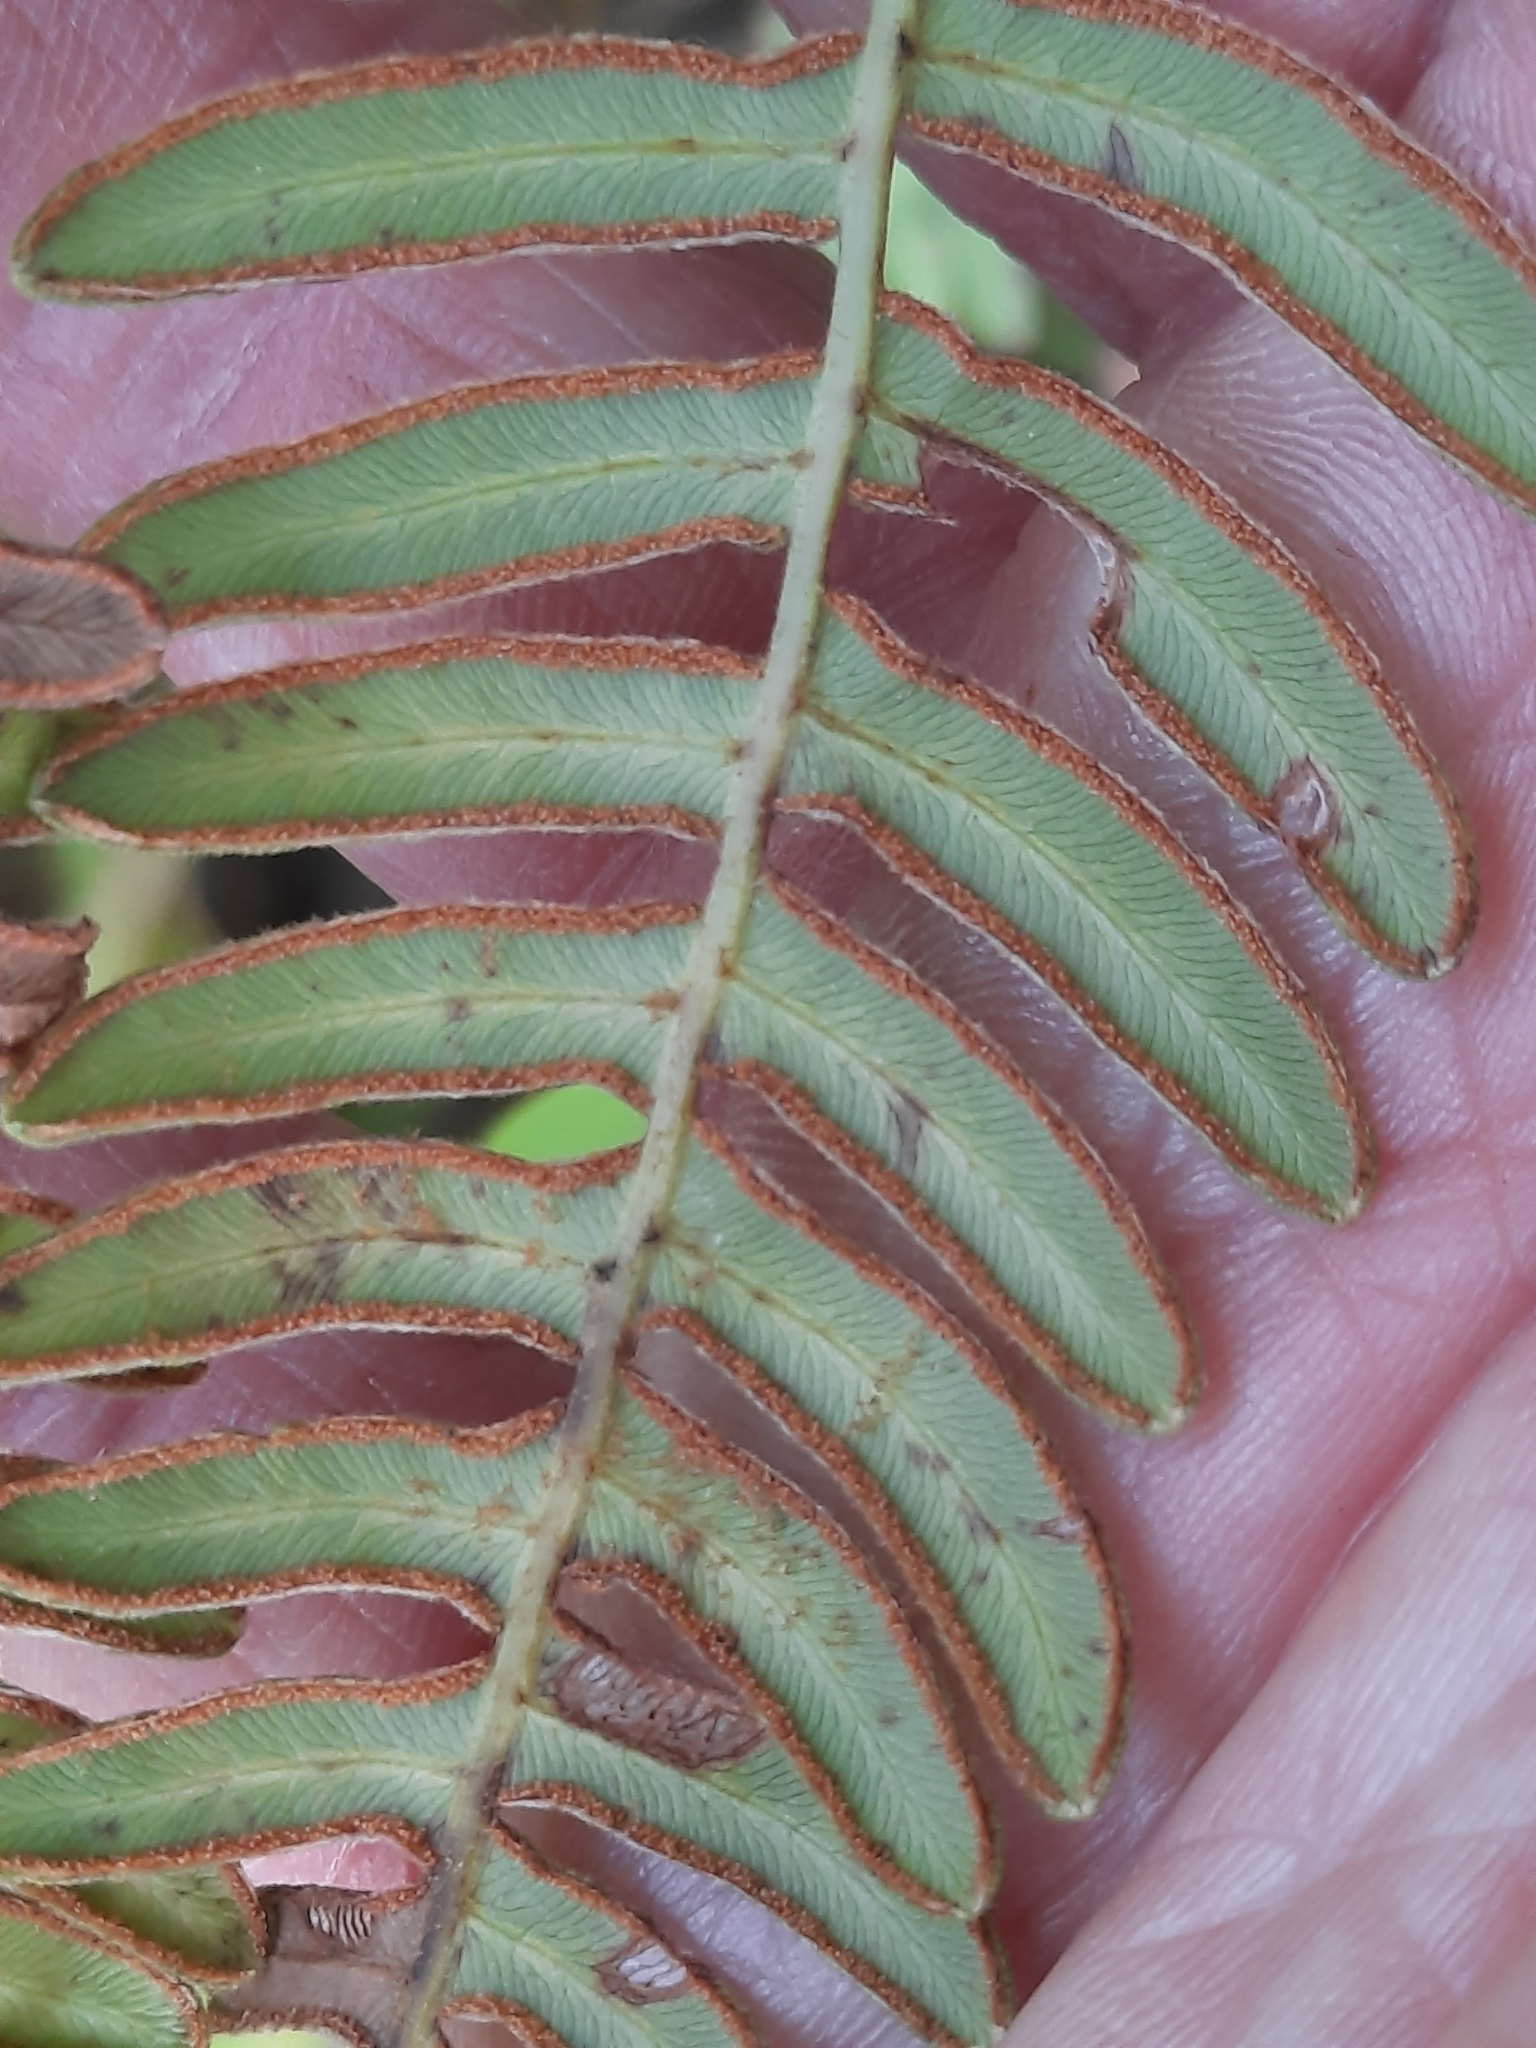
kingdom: Plantae
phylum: Tracheophyta
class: Polypodiopsida
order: Polypodiales
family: Dennstaedtiaceae
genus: Pteridium
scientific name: Pteridium aquilinum
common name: Bracken
